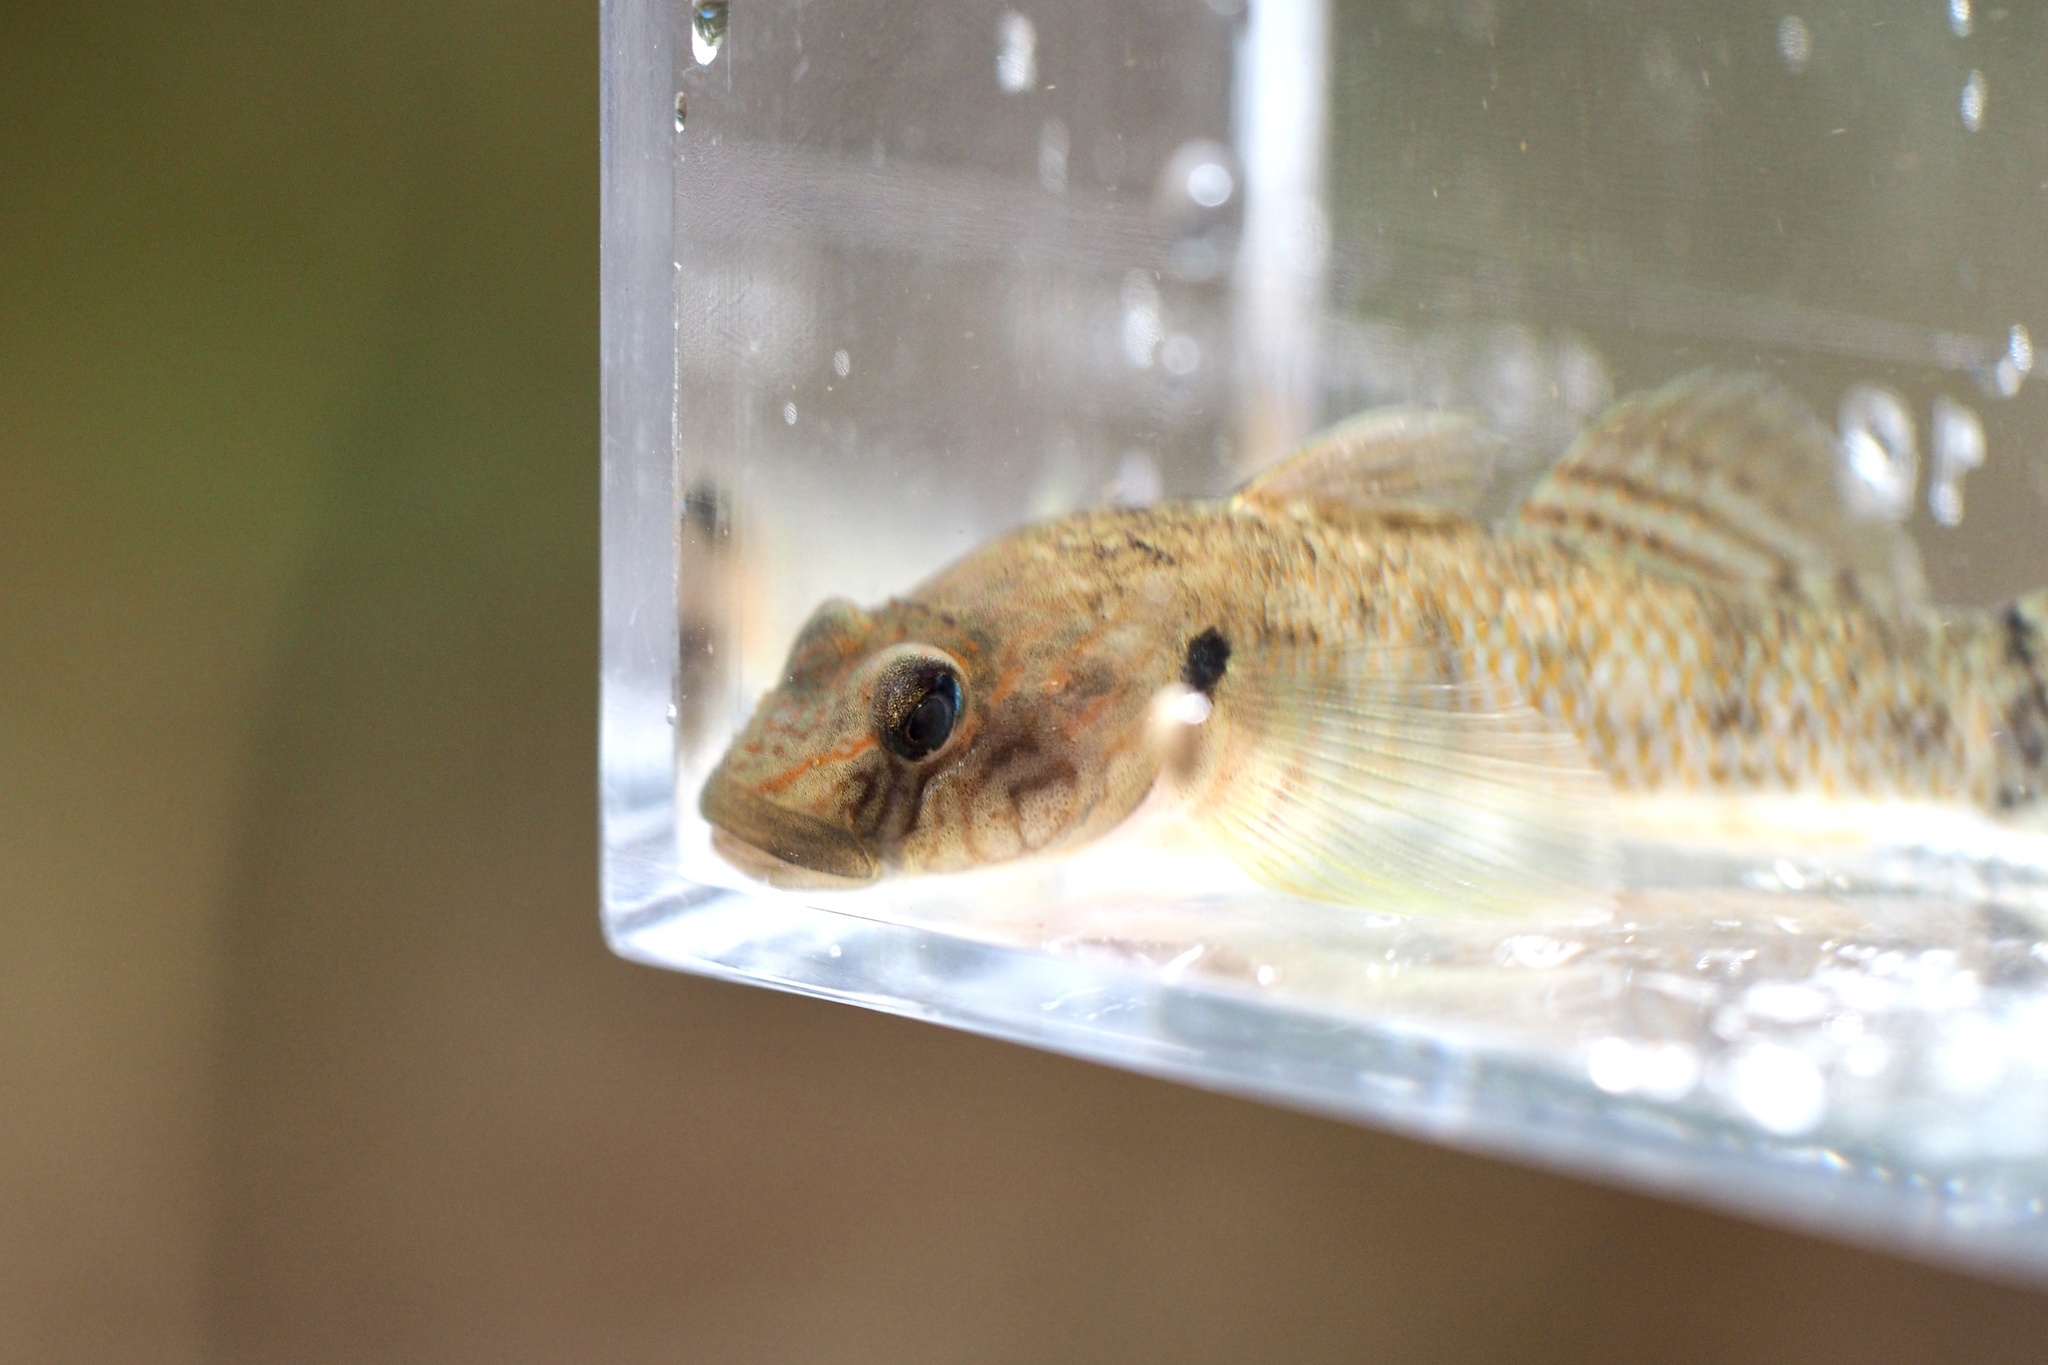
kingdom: Animalia
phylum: Chordata
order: Perciformes
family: Gobiidae
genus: Rhinogobius
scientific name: Rhinogobius nagoyae
